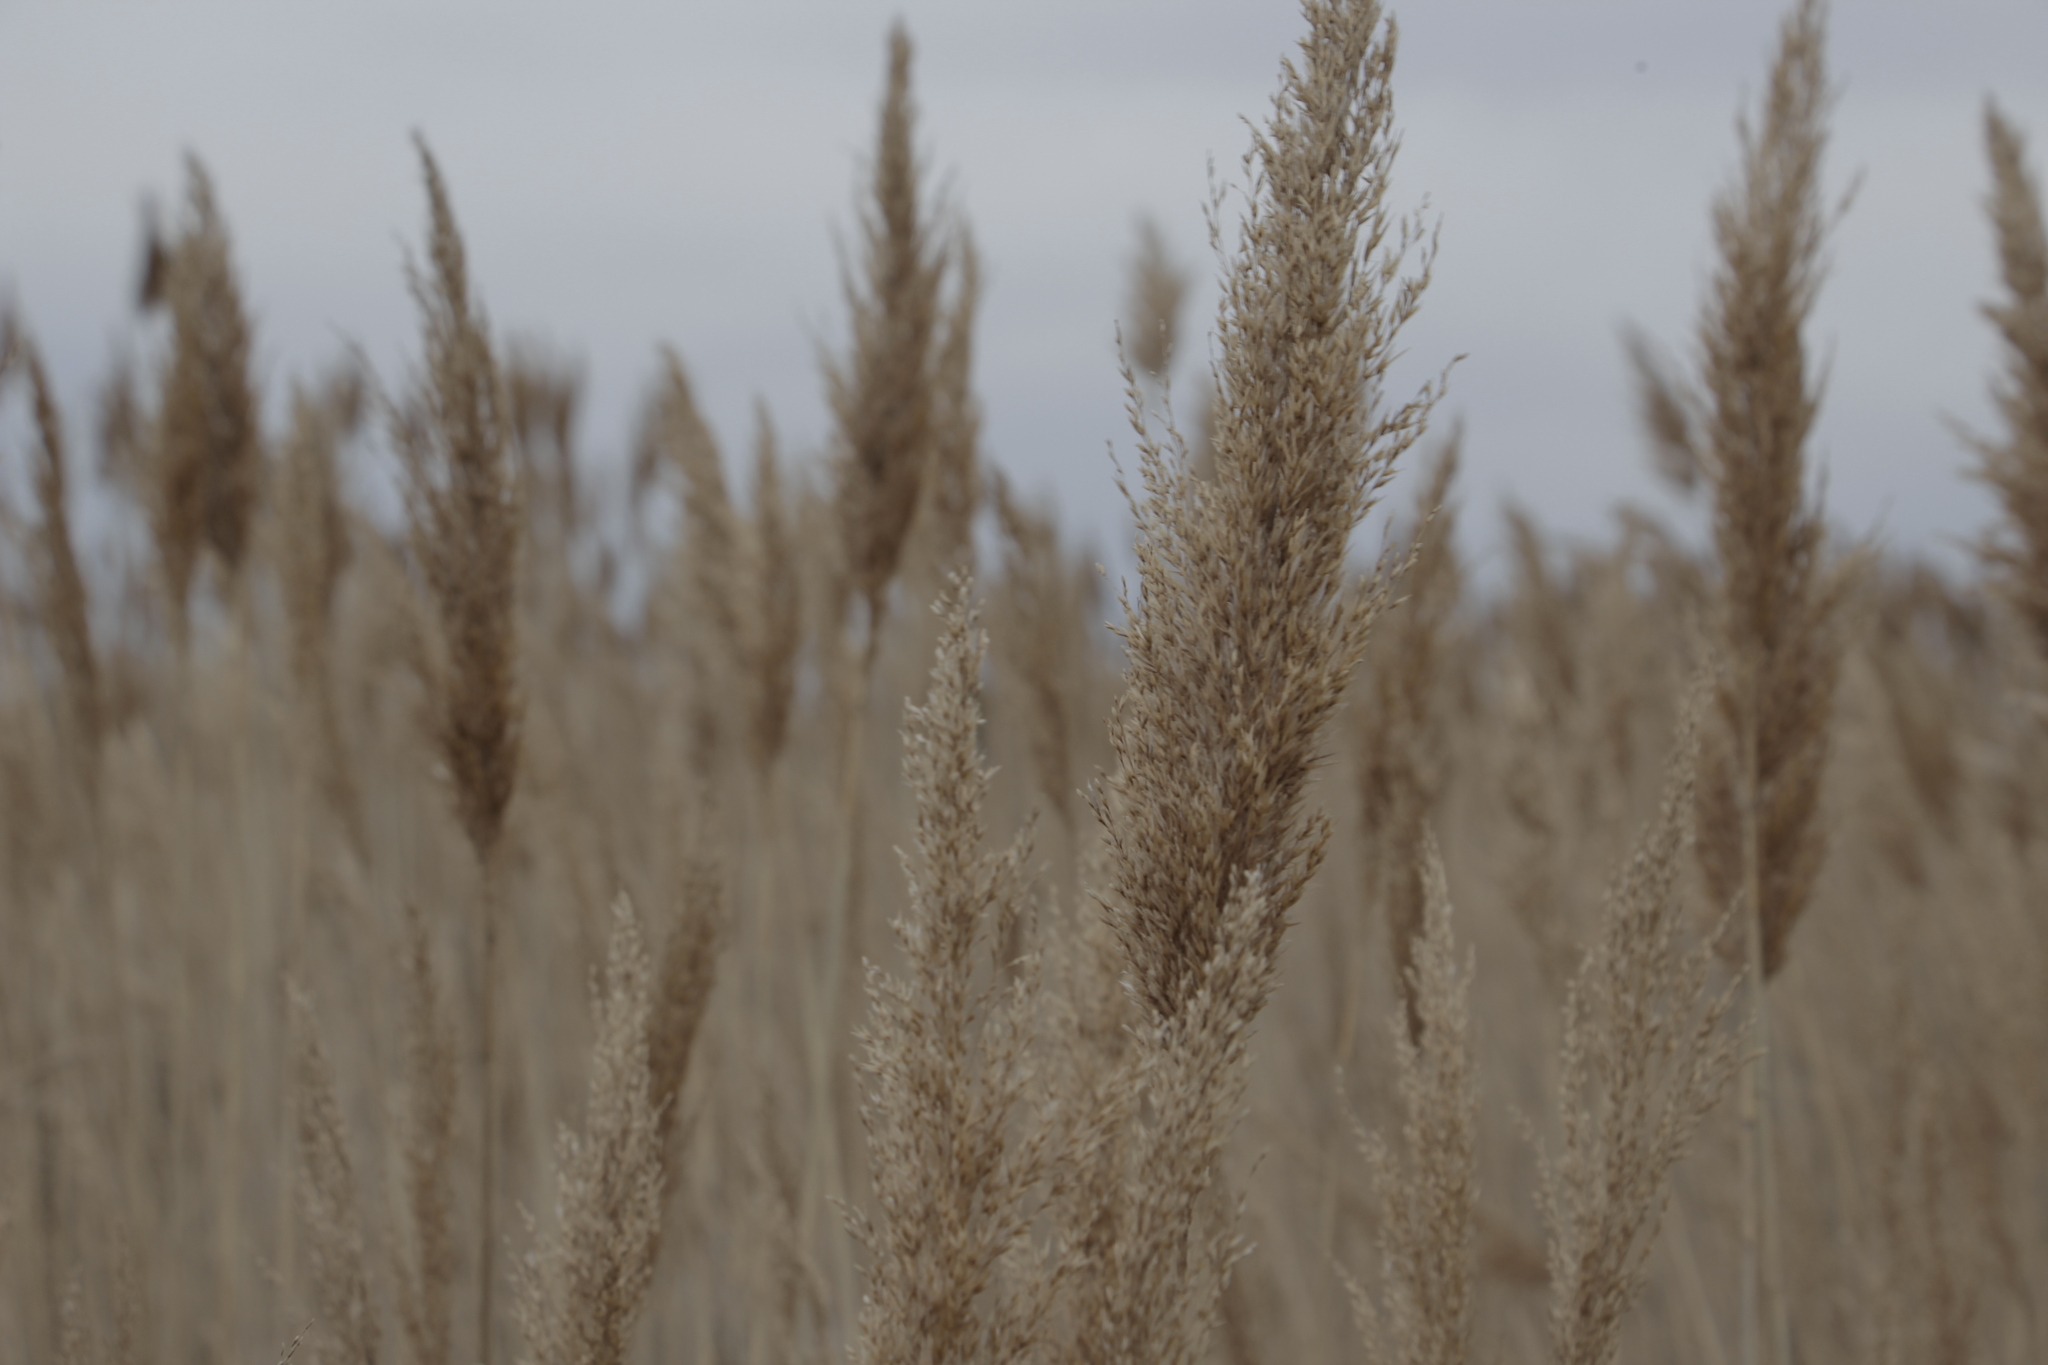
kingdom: Plantae
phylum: Tracheophyta
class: Liliopsida
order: Poales
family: Poaceae
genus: Phragmites
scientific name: Phragmites australis
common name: Common reed
